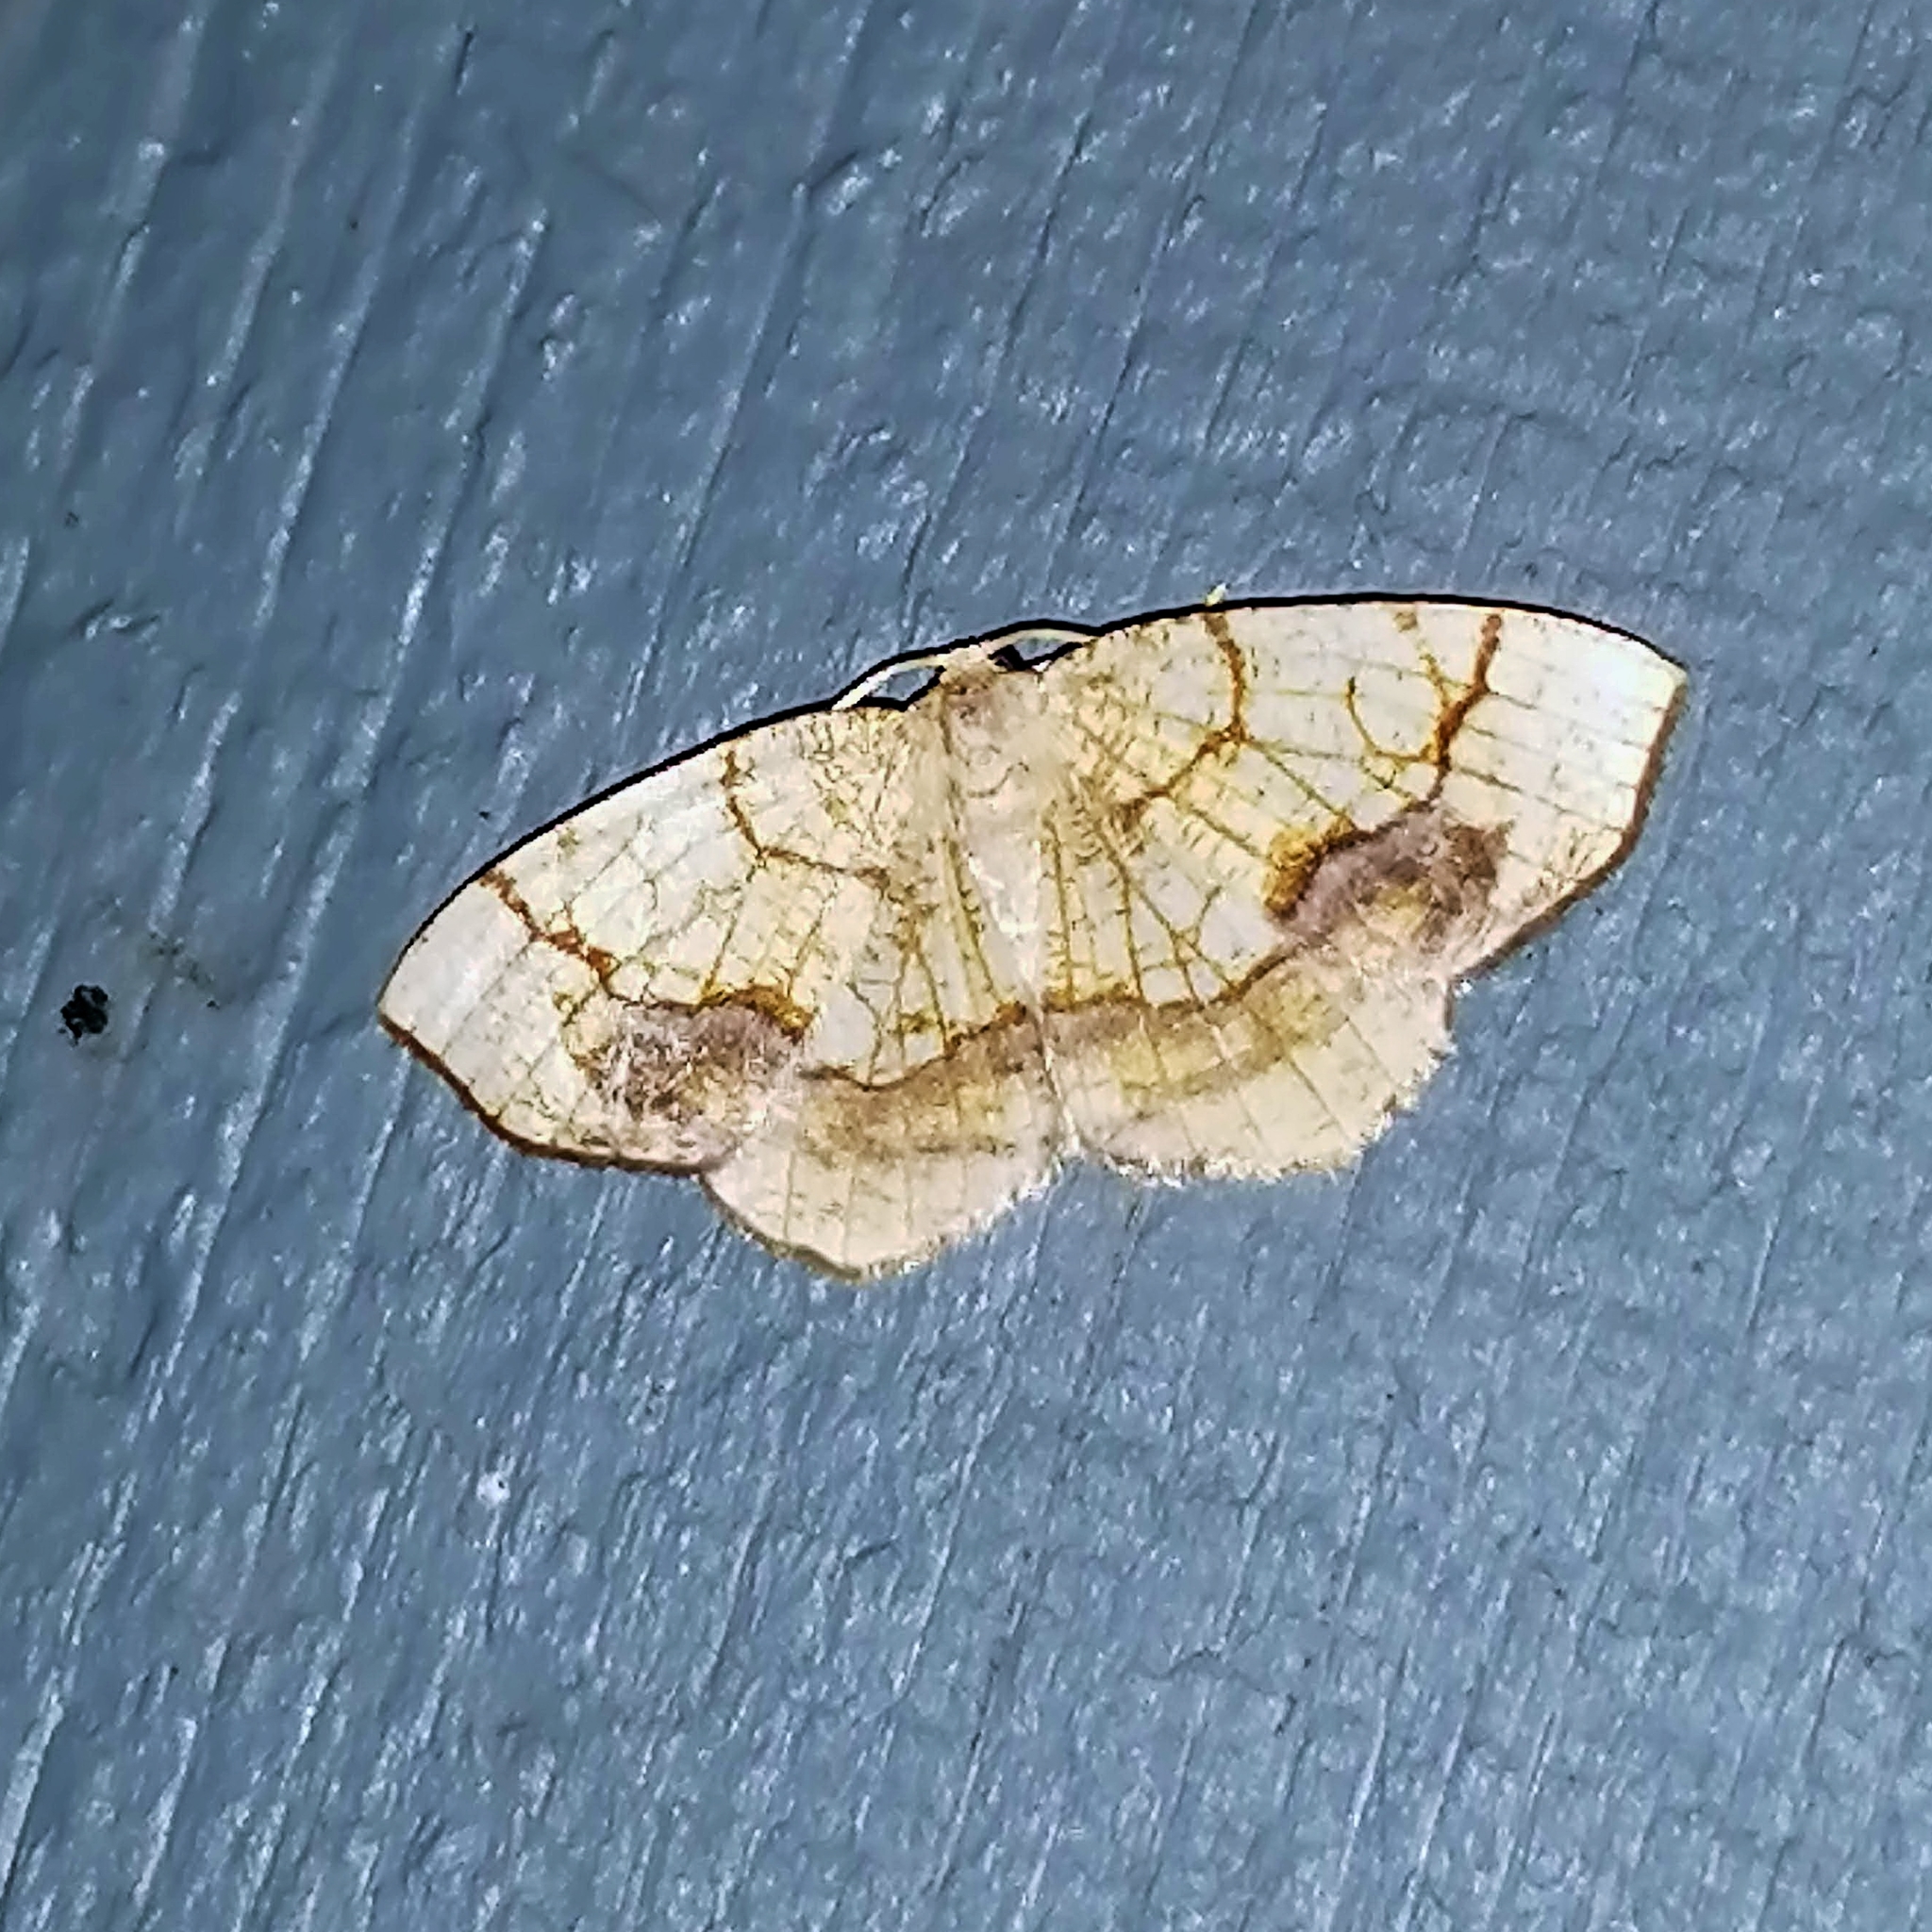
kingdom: Animalia
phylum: Arthropoda
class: Insecta
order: Lepidoptera
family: Geometridae
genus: Nematocampa
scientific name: Nematocampa resistaria
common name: Horned spanworm moth
